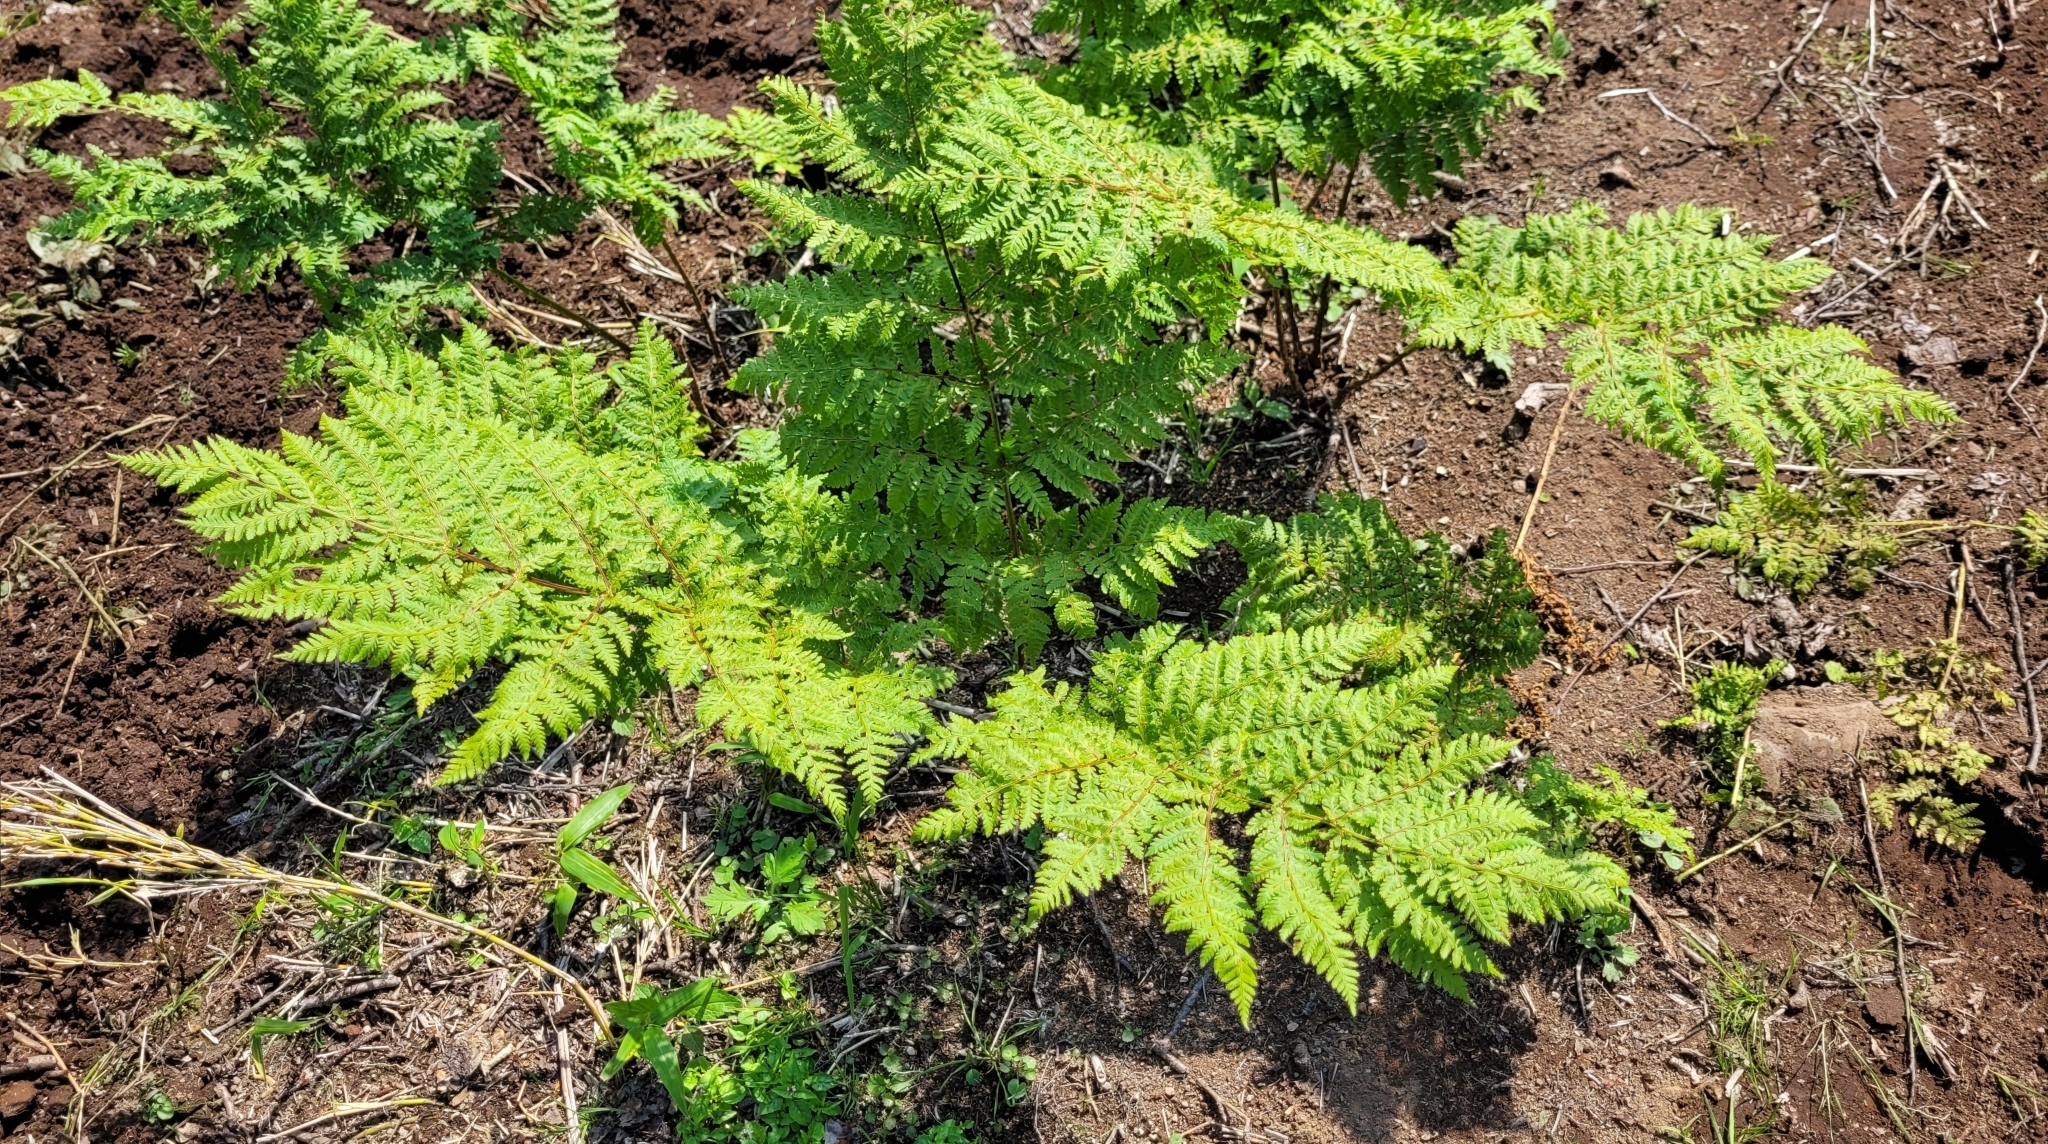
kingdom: Plantae
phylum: Tracheophyta
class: Polypodiopsida
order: Polypodiales
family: Dryopteridaceae
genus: Dryopteris
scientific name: Dryopteris expansa
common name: Northern buckler fern
